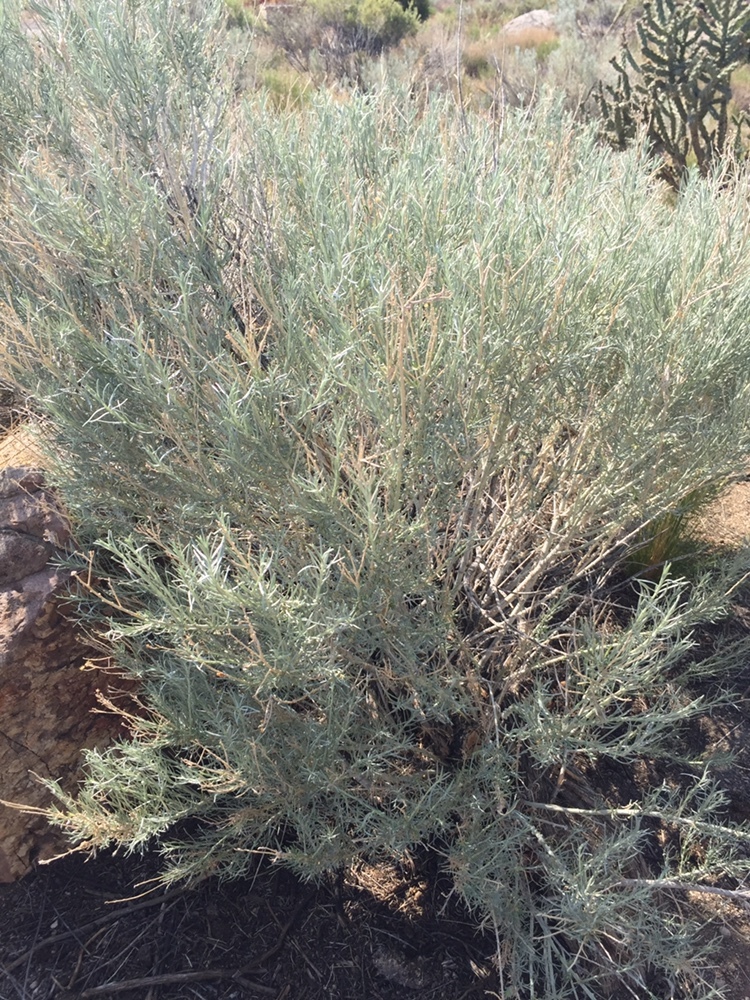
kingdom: Plantae
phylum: Tracheophyta
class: Magnoliopsida
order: Asterales
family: Asteraceae
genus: Ericameria
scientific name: Ericameria nauseosa
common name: Rubber rabbitbrush
